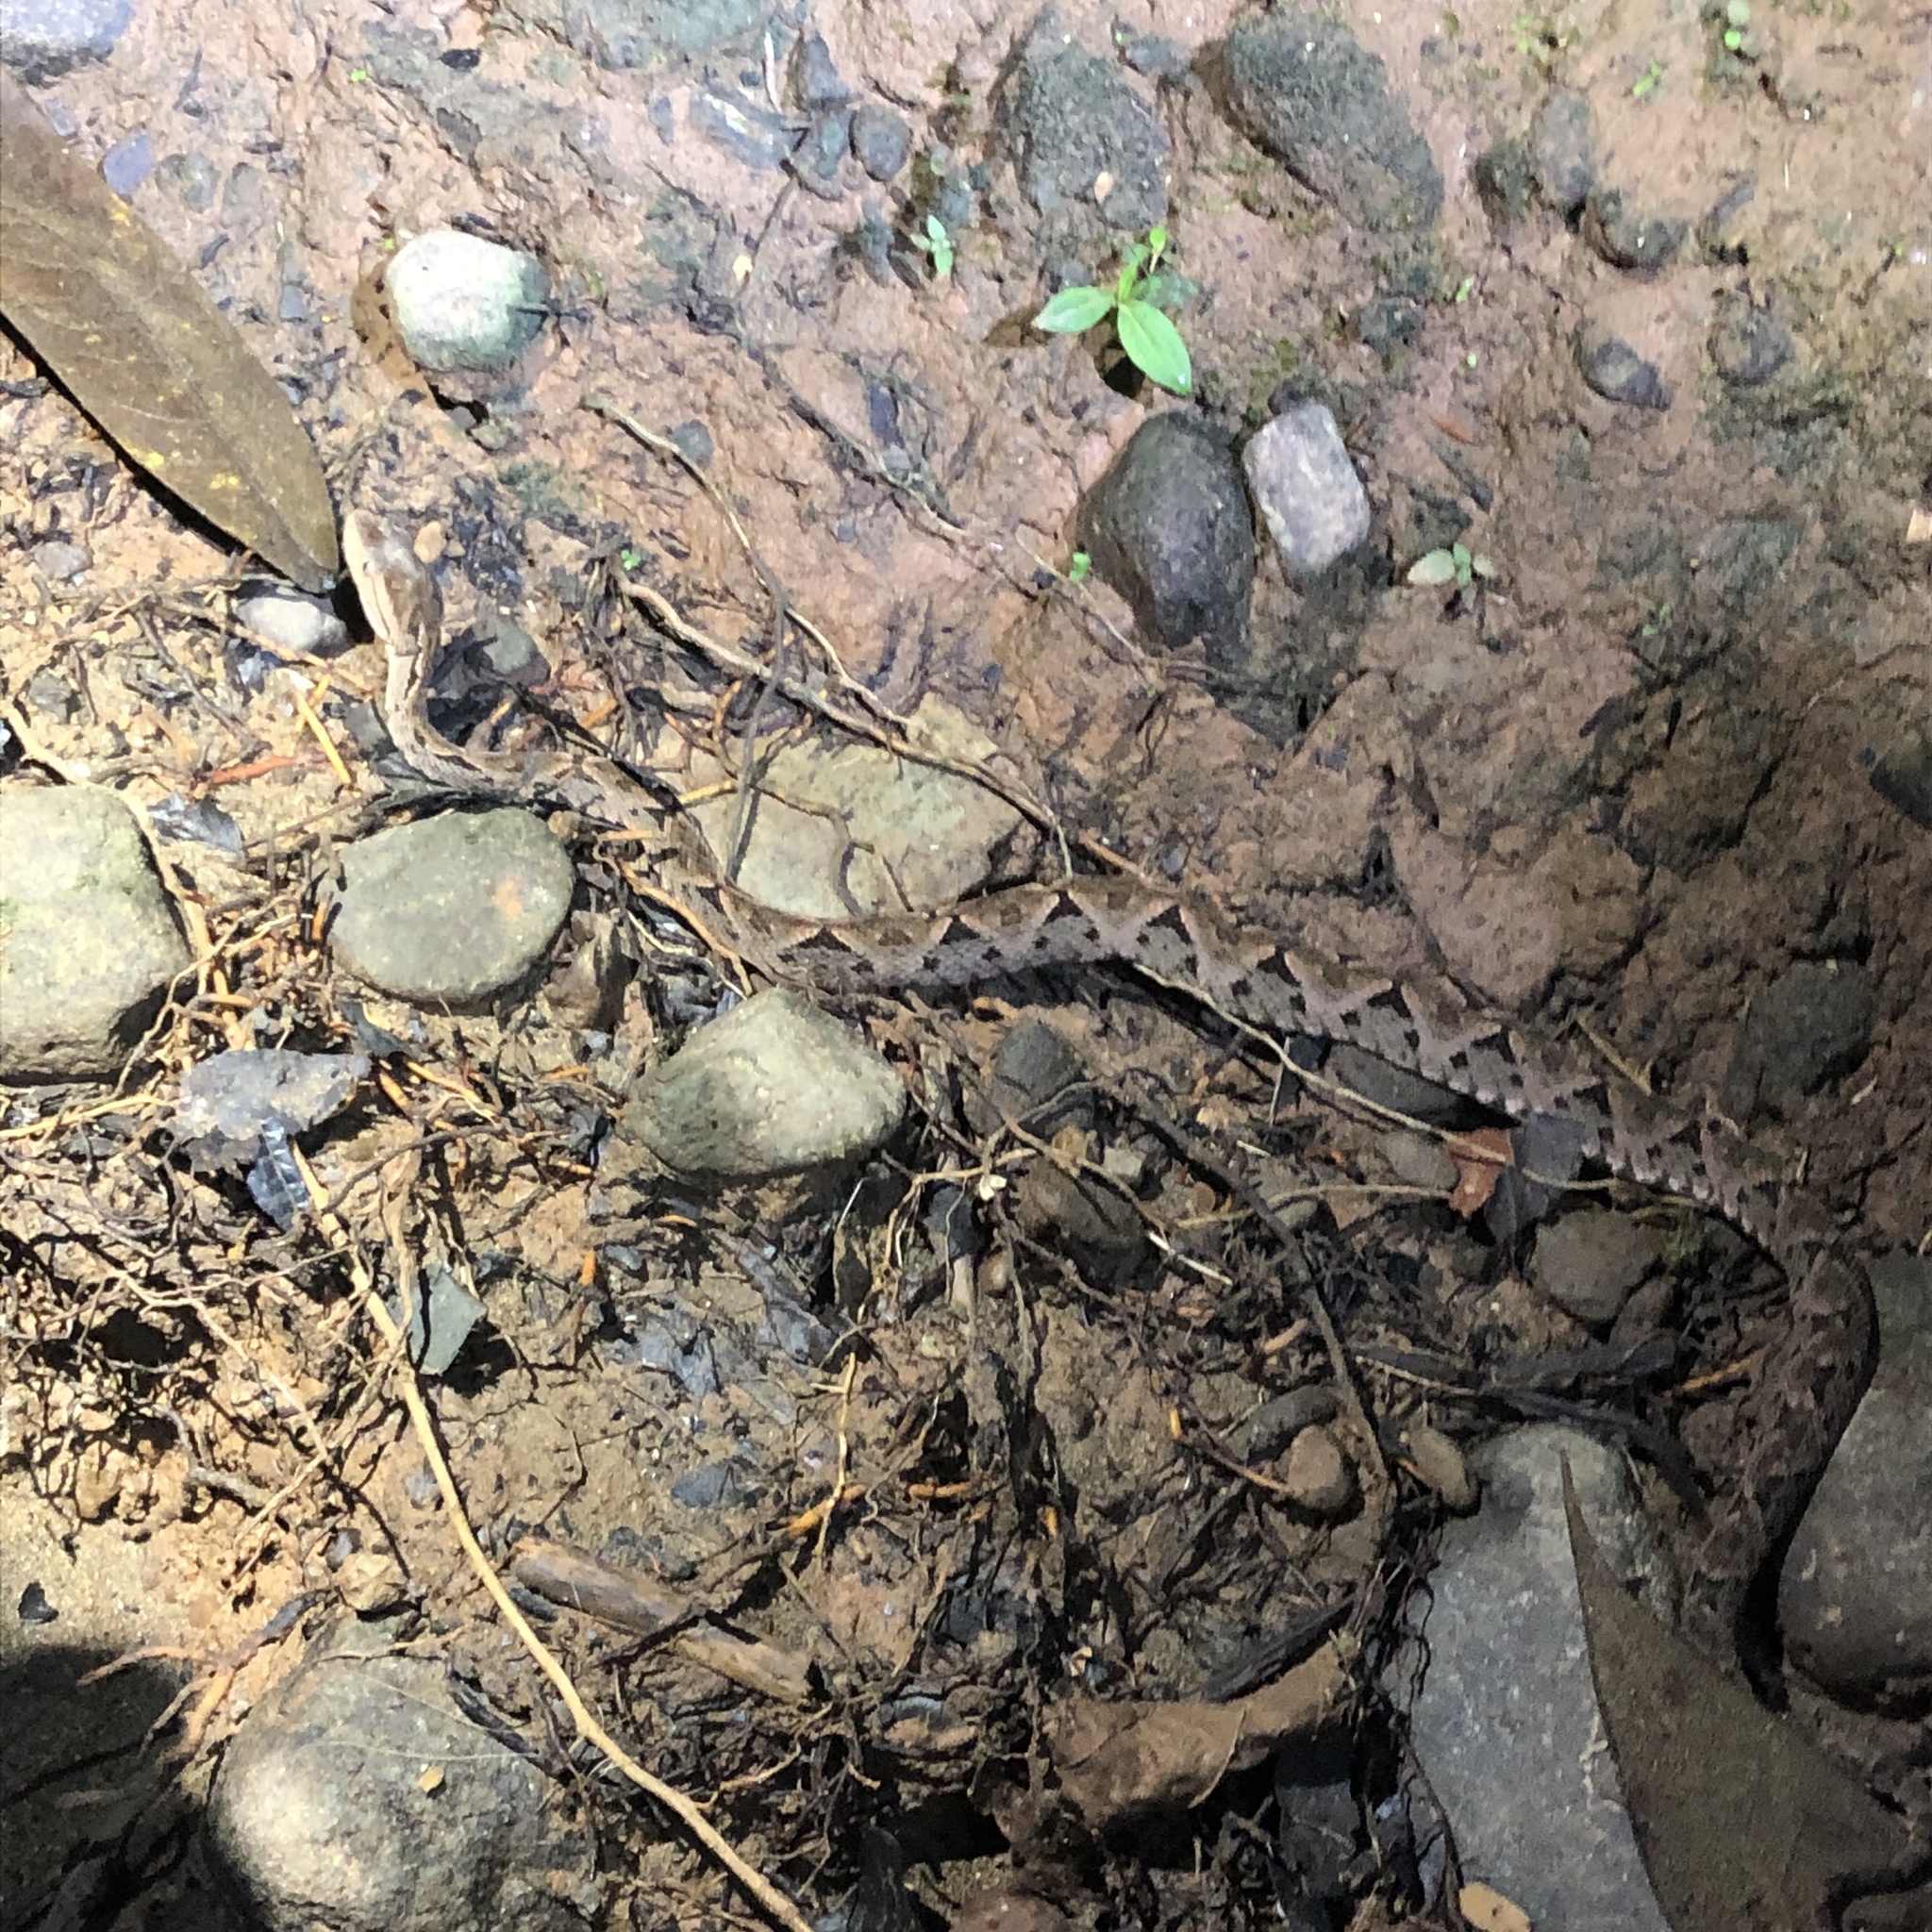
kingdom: Animalia
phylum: Chordata
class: Squamata
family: Viperidae
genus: Bothrops
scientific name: Bothrops asper
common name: Terciopelo
